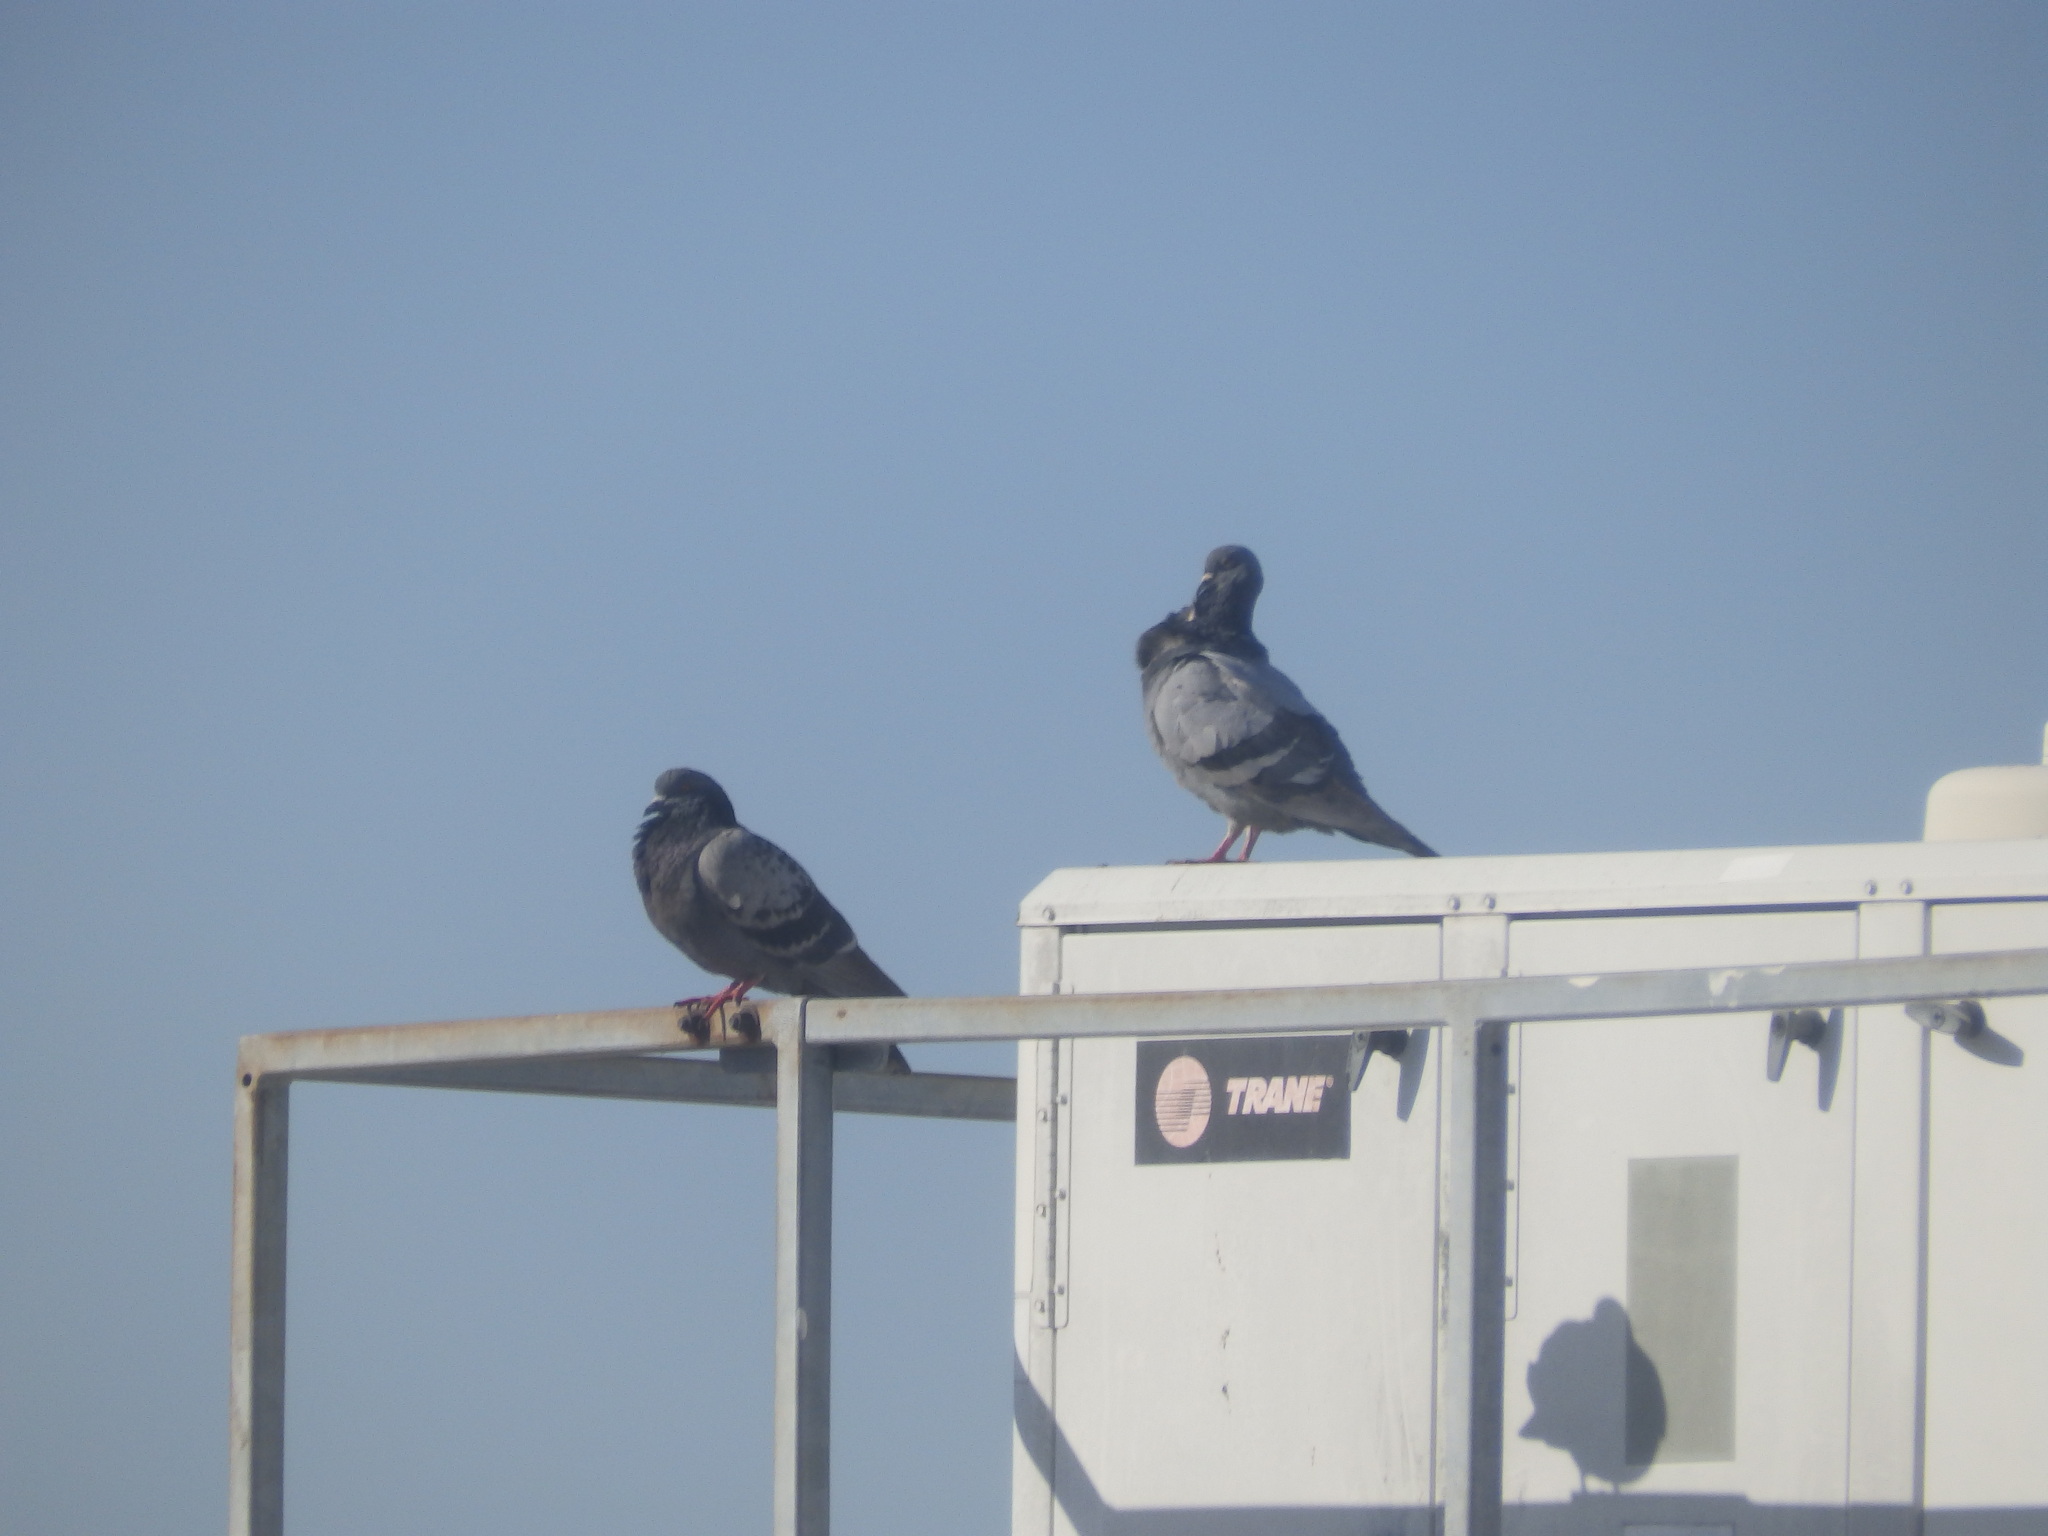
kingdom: Animalia
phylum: Chordata
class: Aves
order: Columbiformes
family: Columbidae
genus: Columba
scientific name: Columba livia
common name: Rock pigeon
